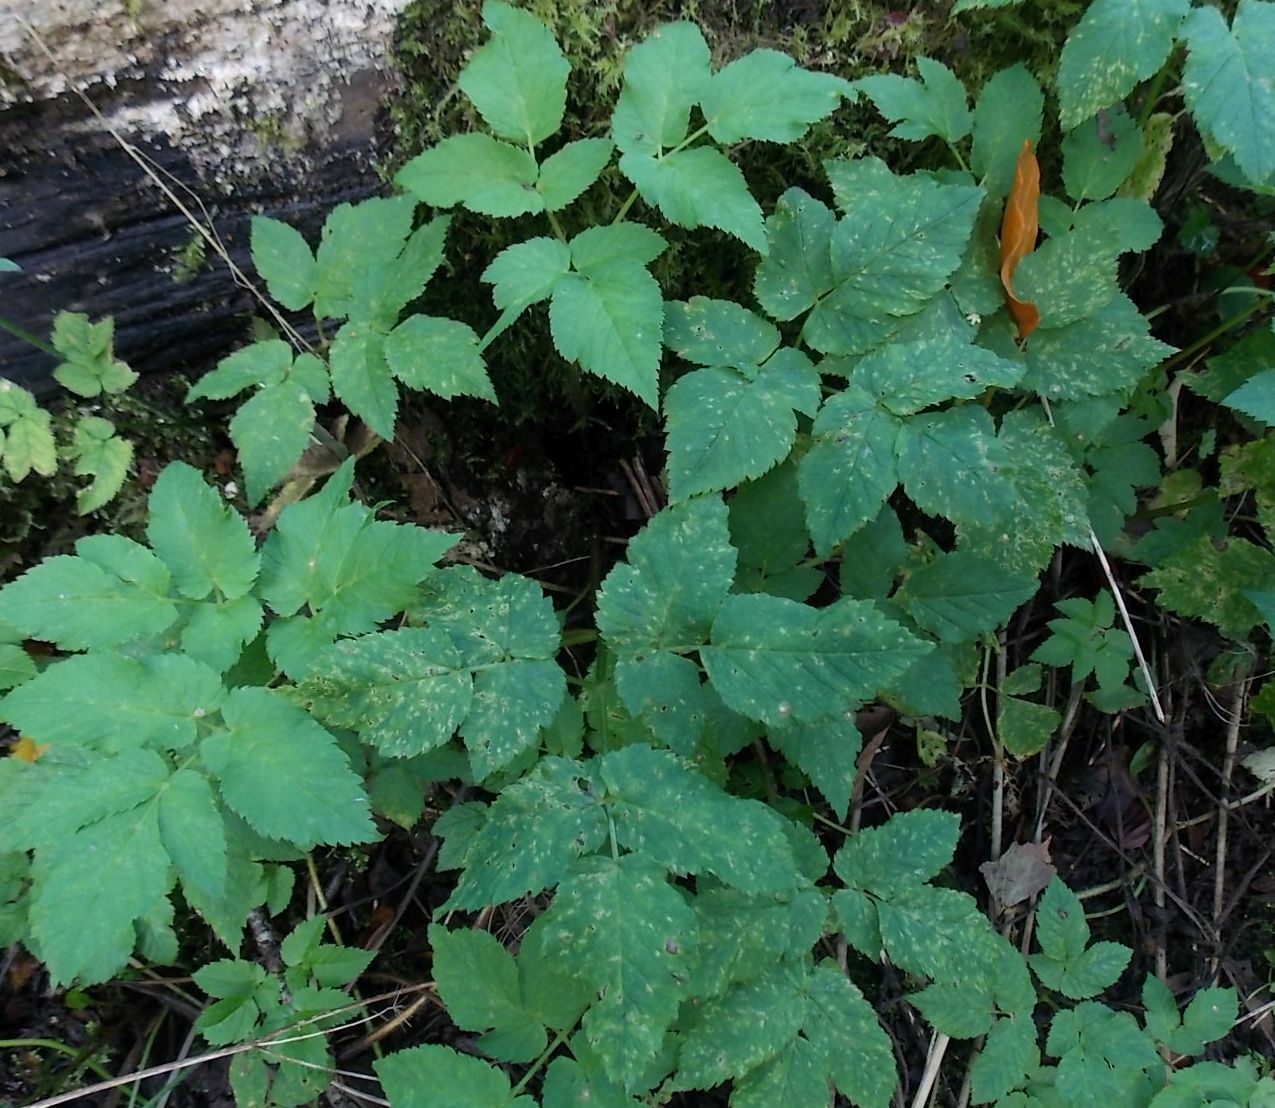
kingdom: Plantae
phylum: Tracheophyta
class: Magnoliopsida
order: Apiales
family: Apiaceae
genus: Aegopodium
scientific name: Aegopodium podagraria
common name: Ground-elder
